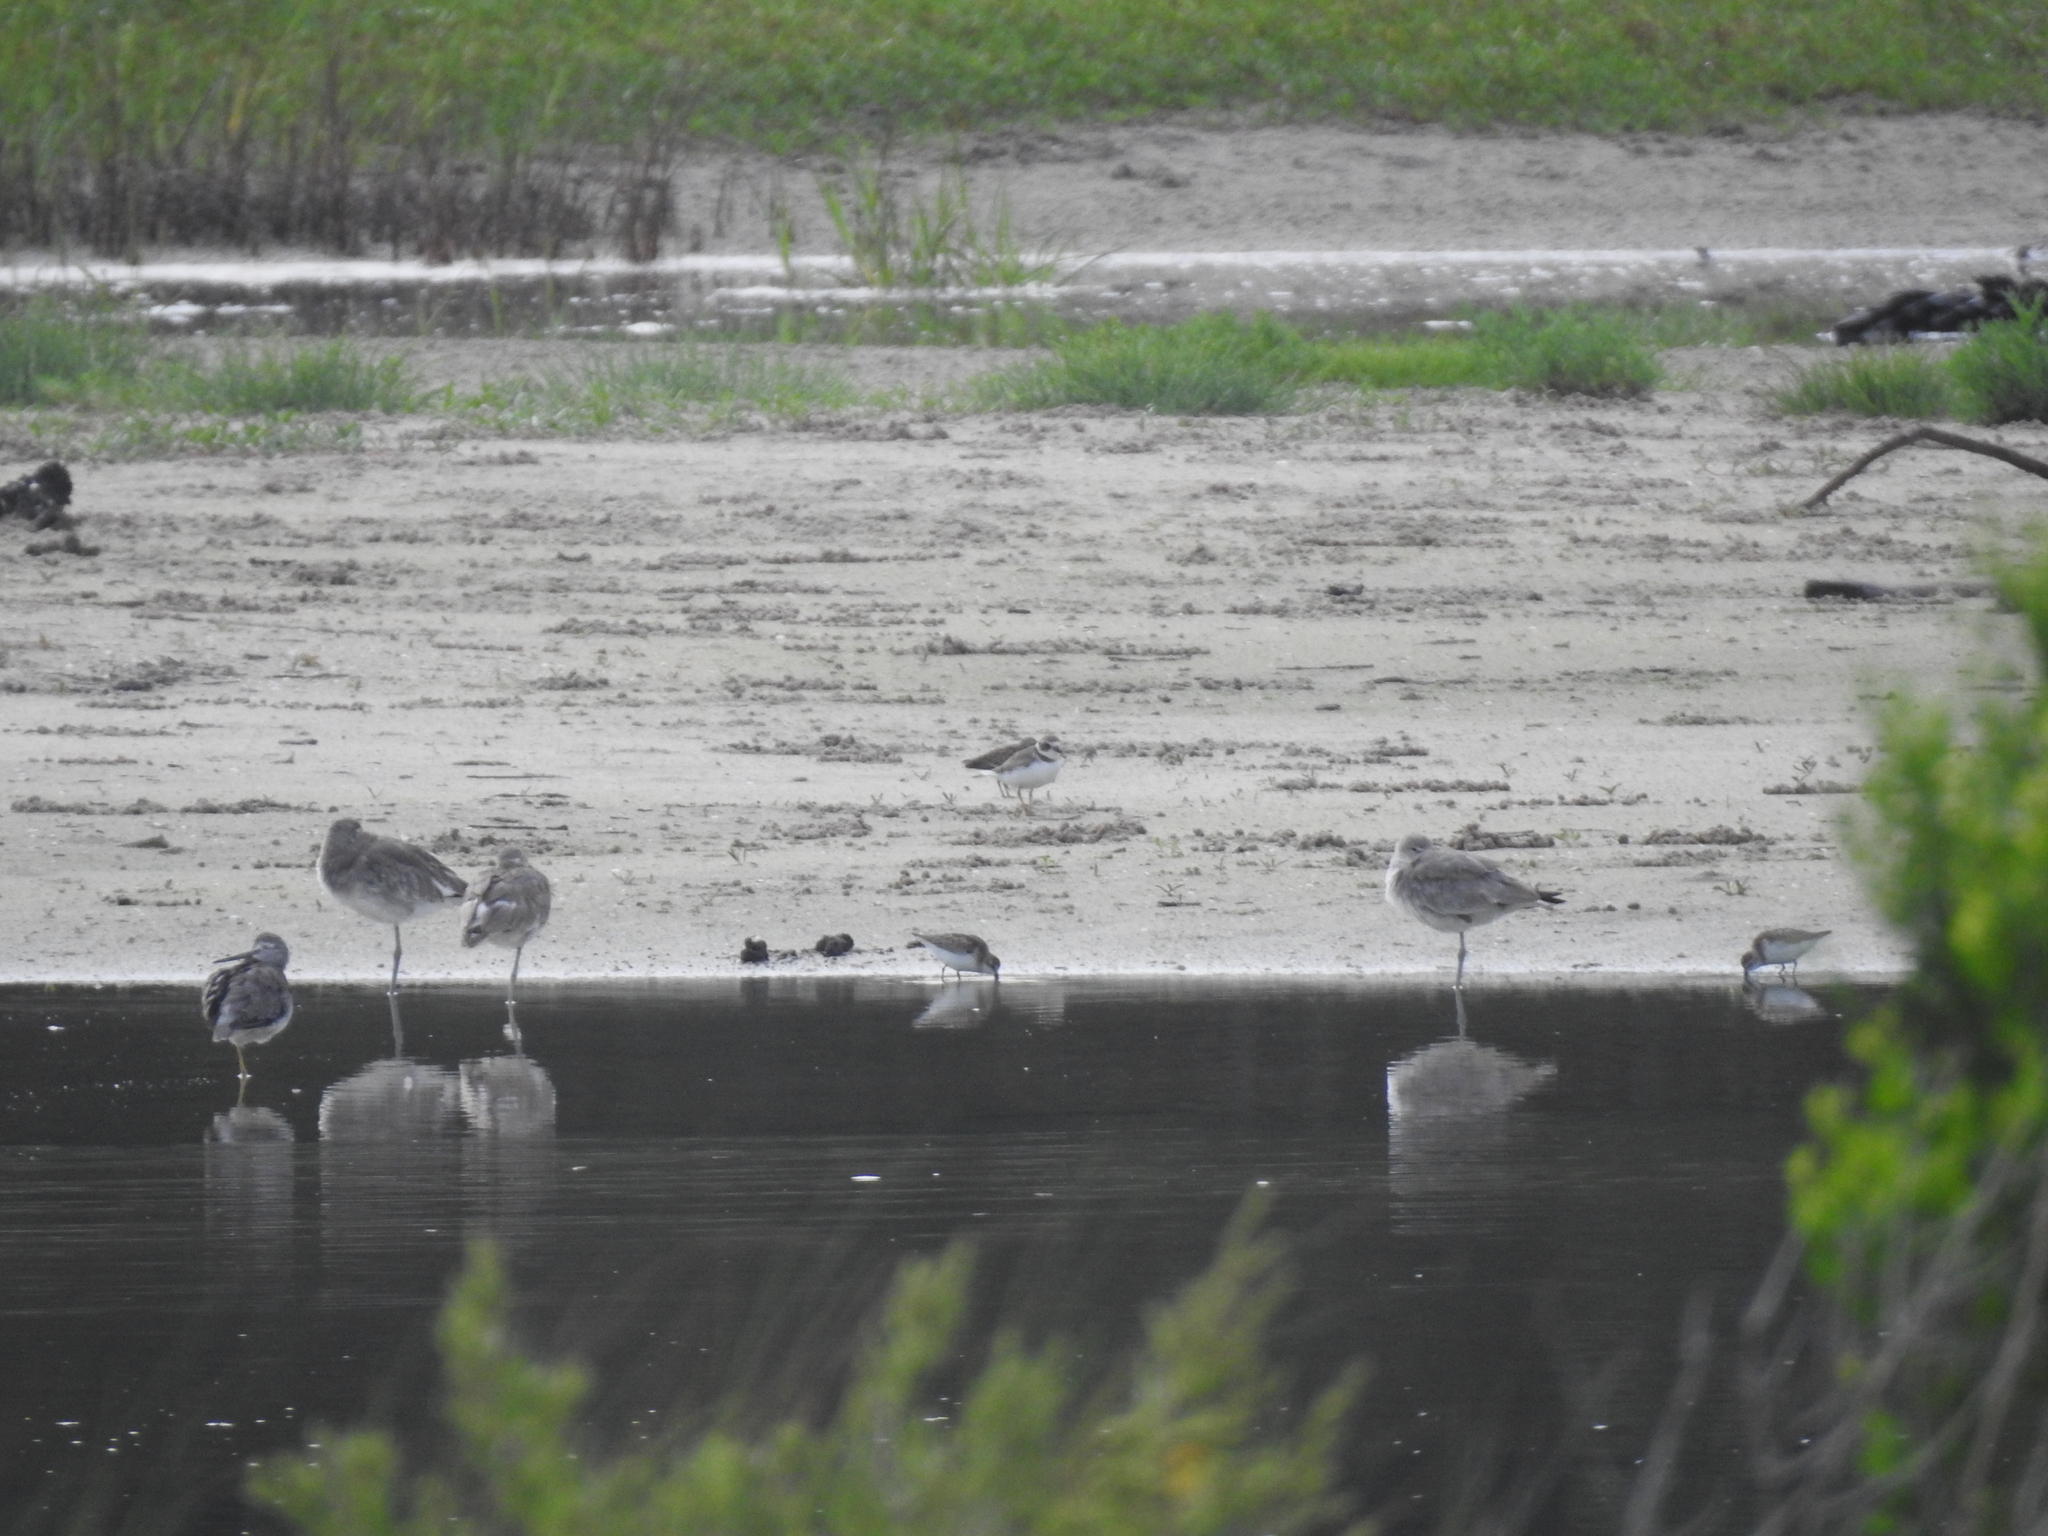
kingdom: Animalia
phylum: Chordata
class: Aves
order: Charadriiformes
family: Charadriidae
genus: Charadrius
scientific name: Charadrius semipalmatus
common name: Semipalmated plover
